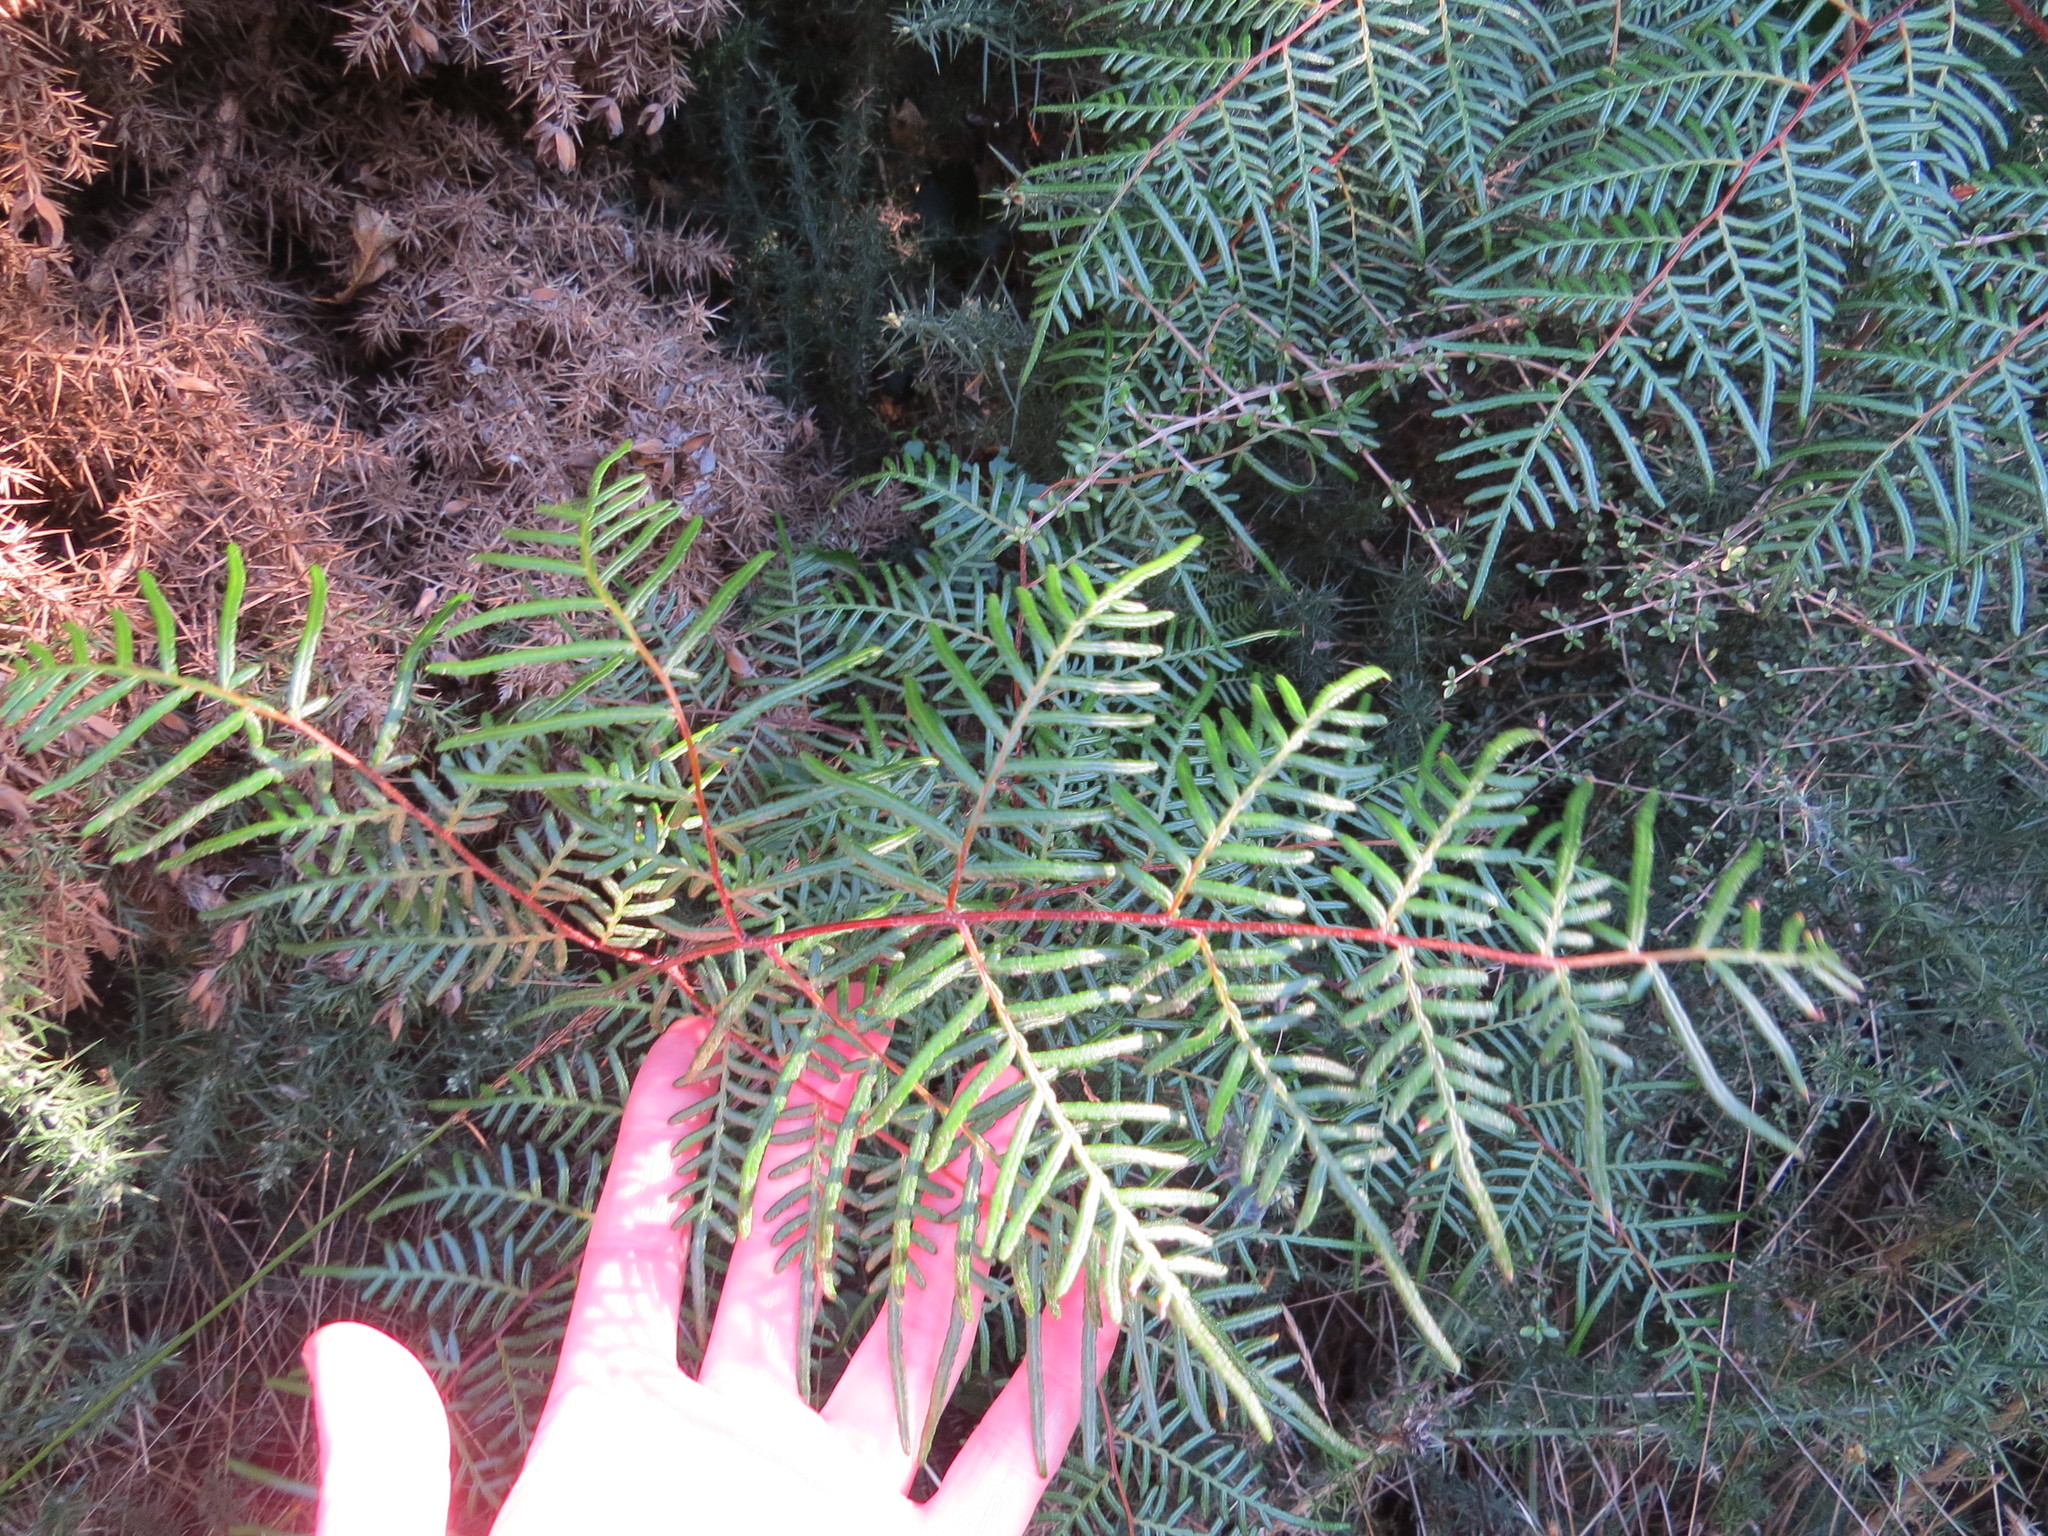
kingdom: Plantae
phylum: Tracheophyta
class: Polypodiopsida
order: Polypodiales
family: Dennstaedtiaceae
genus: Pteridium
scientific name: Pteridium esculentum
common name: Bracken fern
